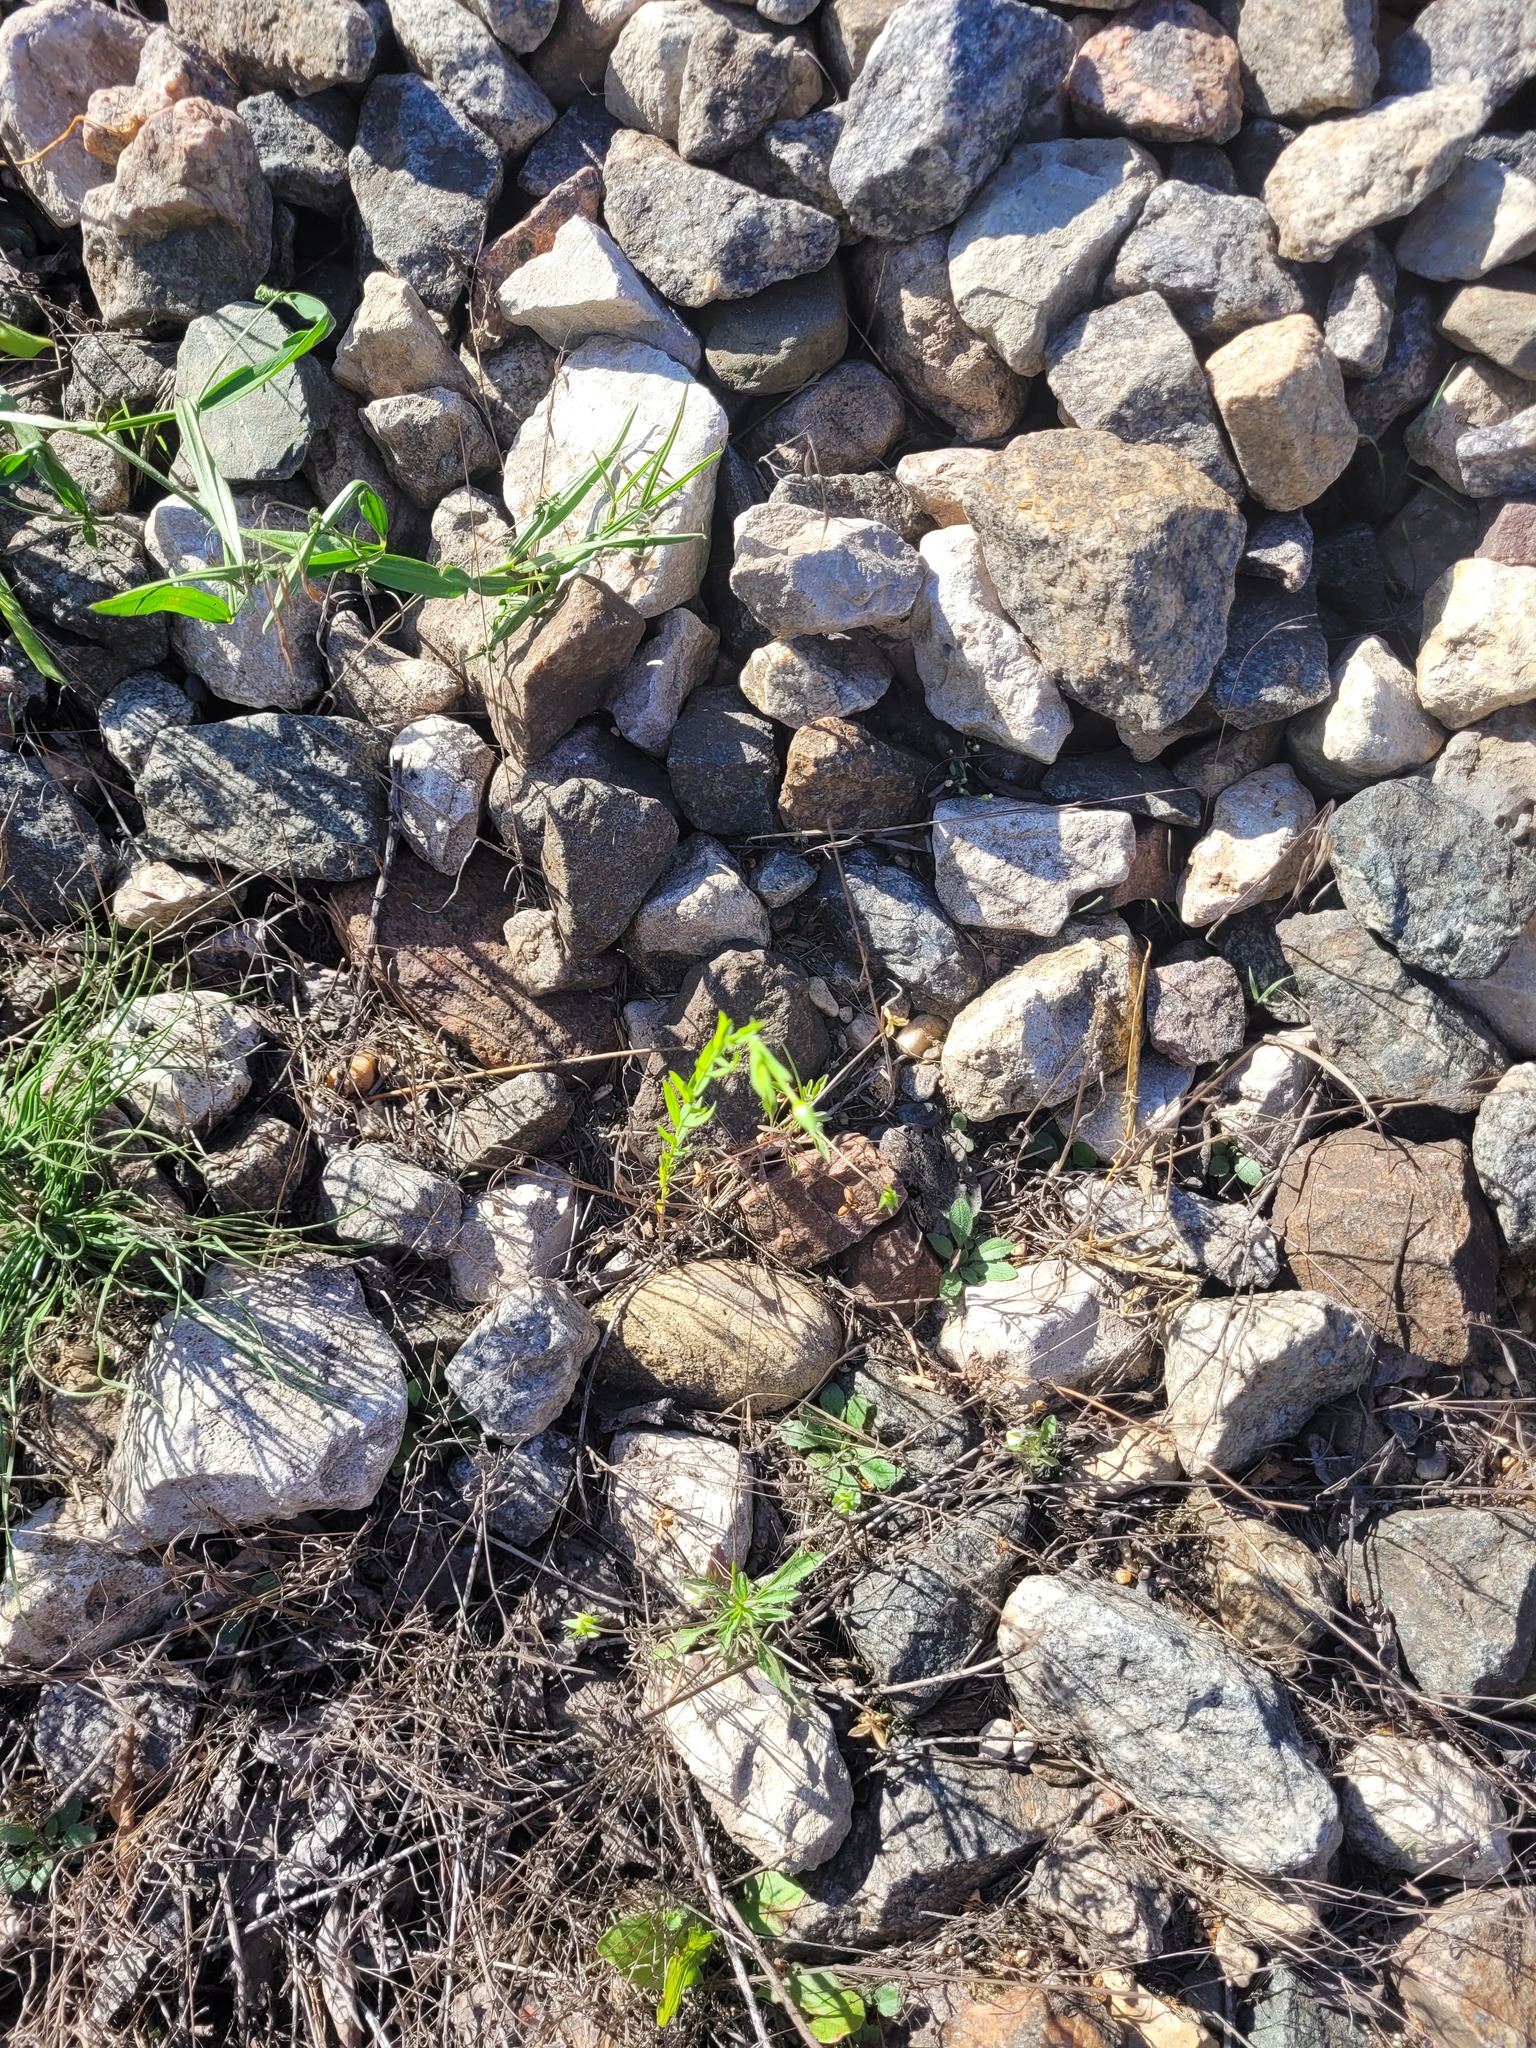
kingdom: Plantae
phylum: Tracheophyta
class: Magnoliopsida
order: Malpighiales
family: Linaceae
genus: Linum
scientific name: Linum usitatissimum
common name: Flax
